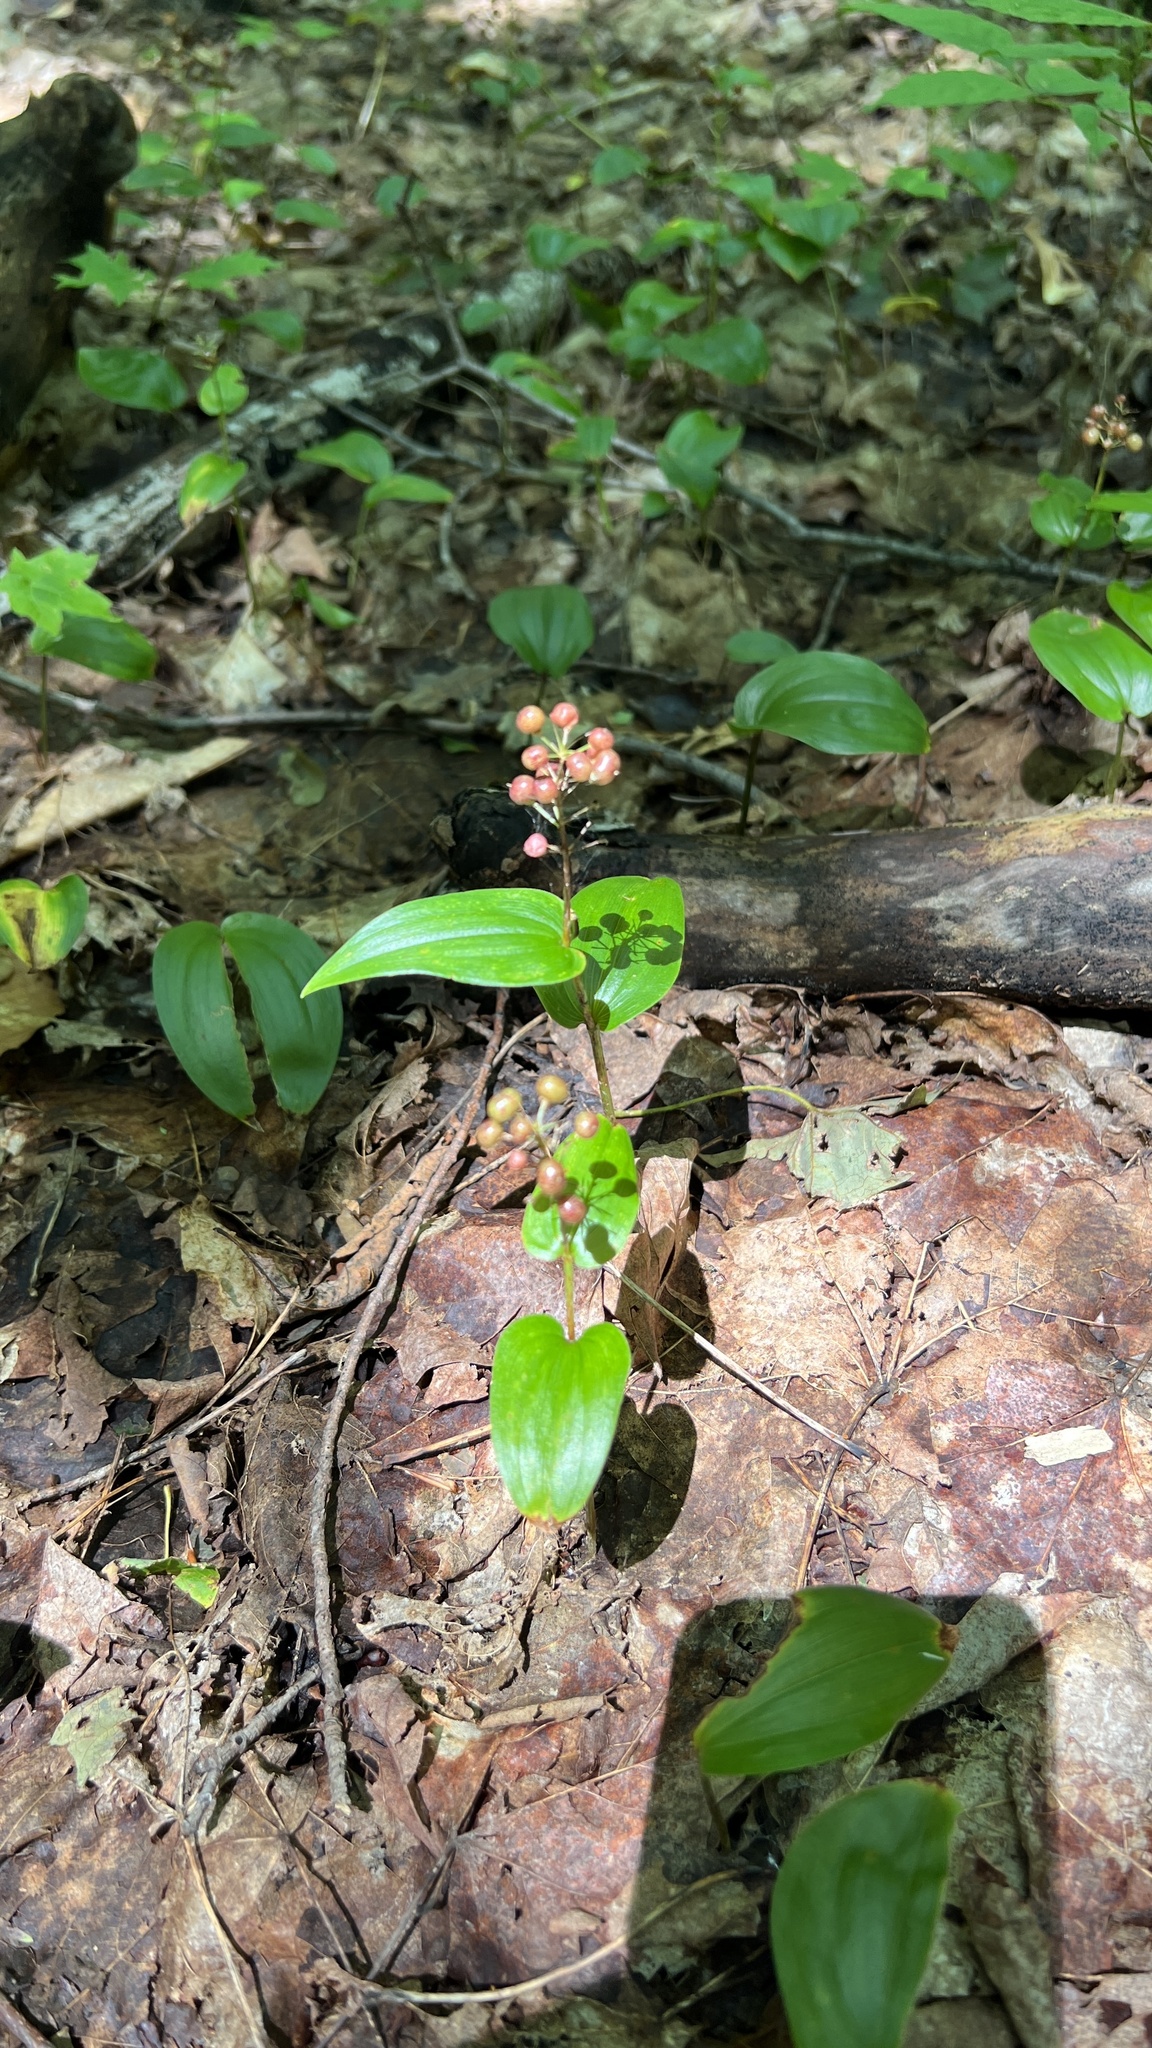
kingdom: Plantae
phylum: Tracheophyta
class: Liliopsida
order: Asparagales
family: Asparagaceae
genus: Maianthemum
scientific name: Maianthemum canadense
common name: False lily-of-the-valley
